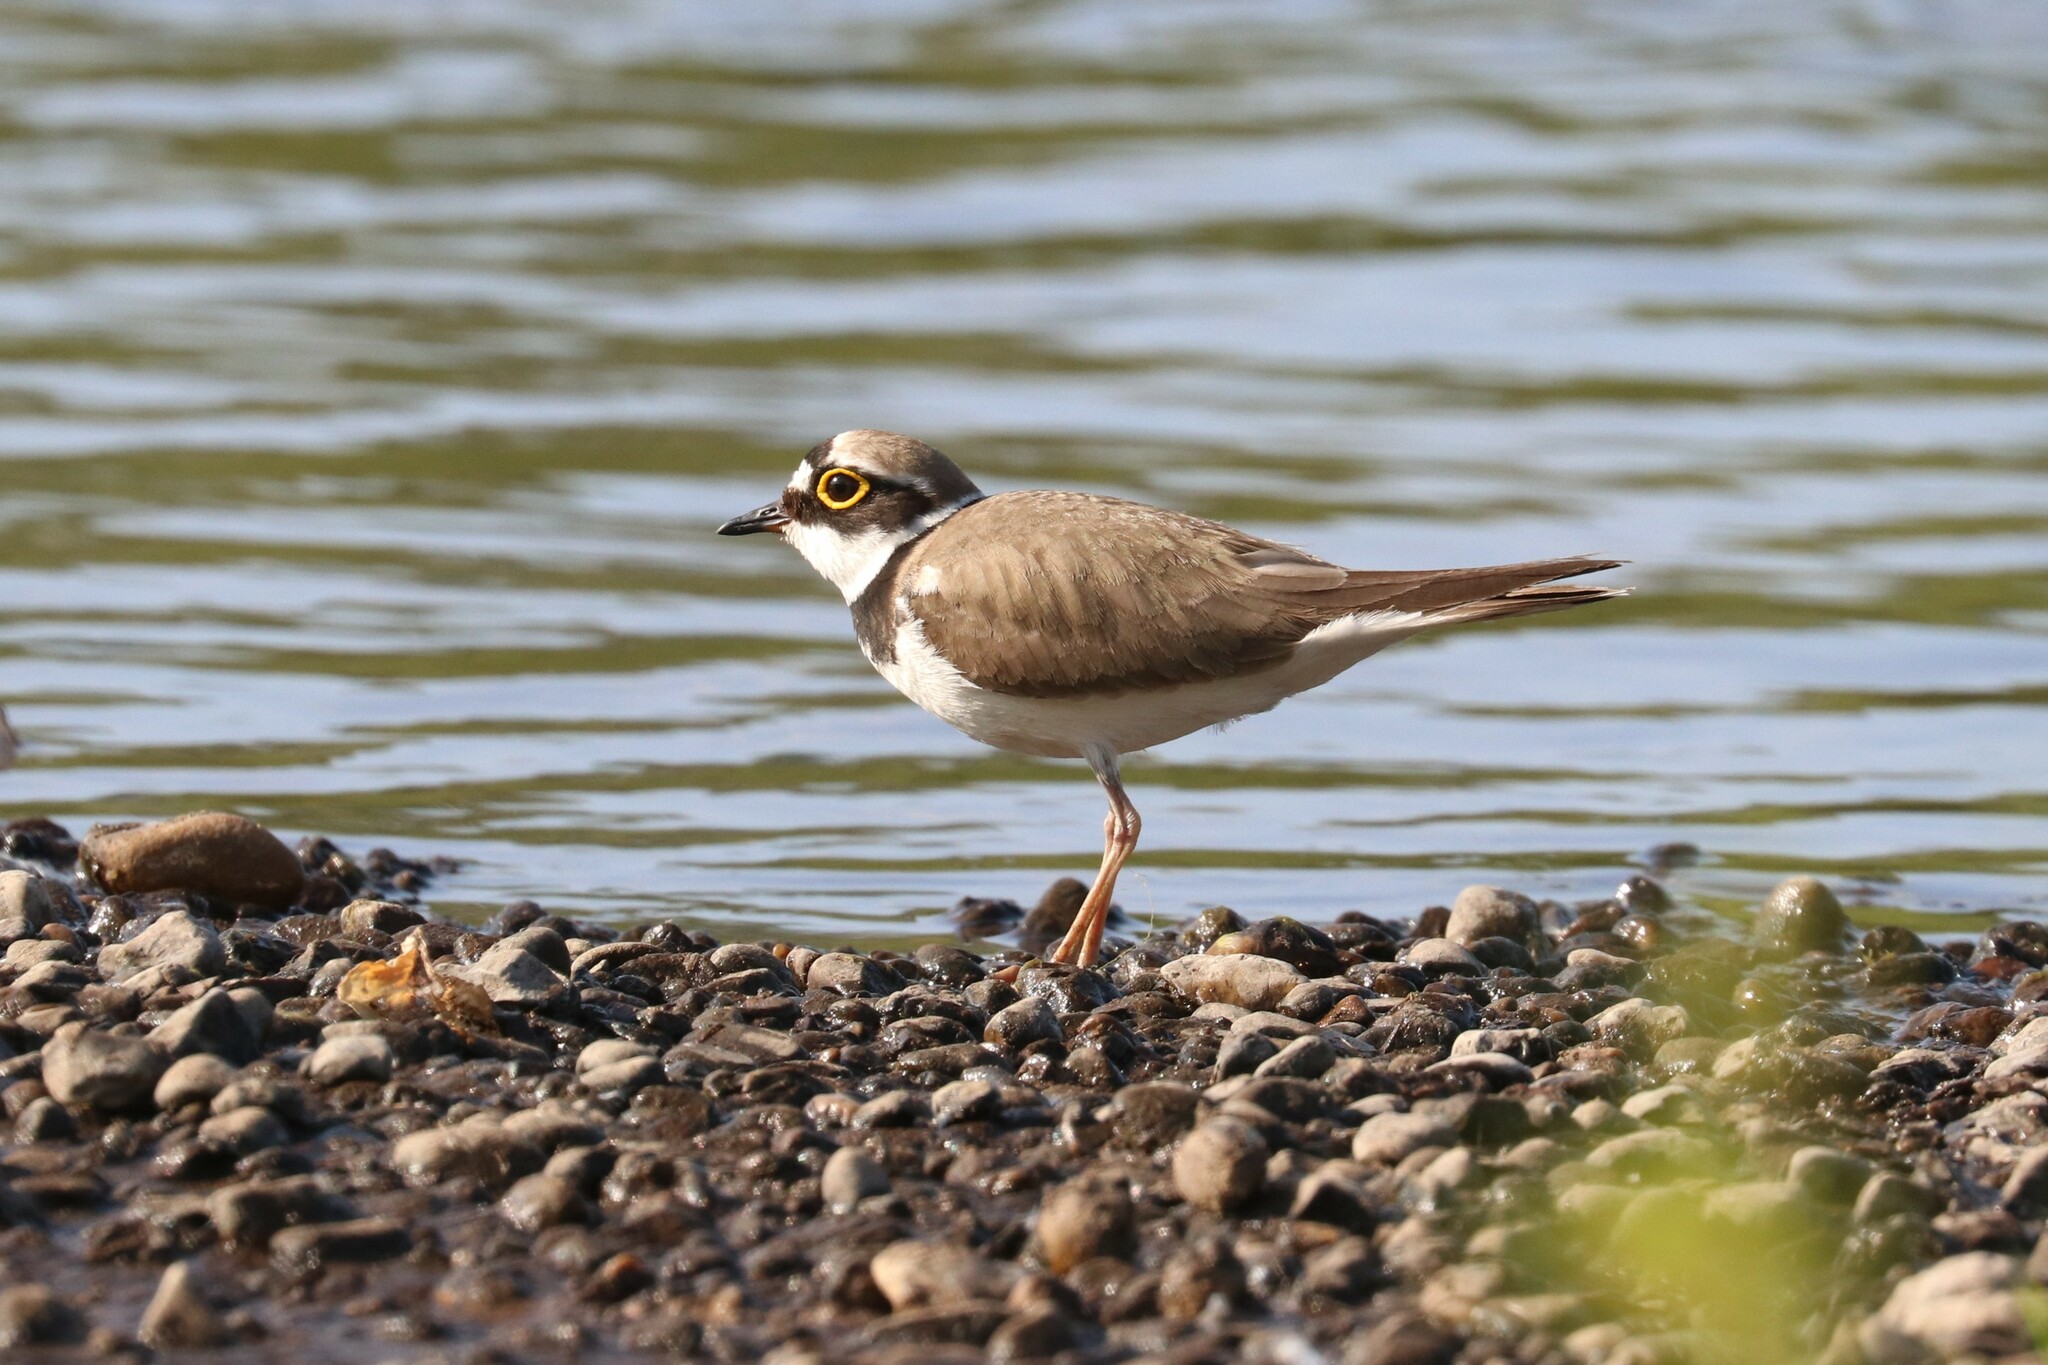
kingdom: Animalia
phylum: Chordata
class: Aves
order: Charadriiformes
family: Charadriidae
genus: Charadrius
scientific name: Charadrius dubius
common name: Little ringed plover
